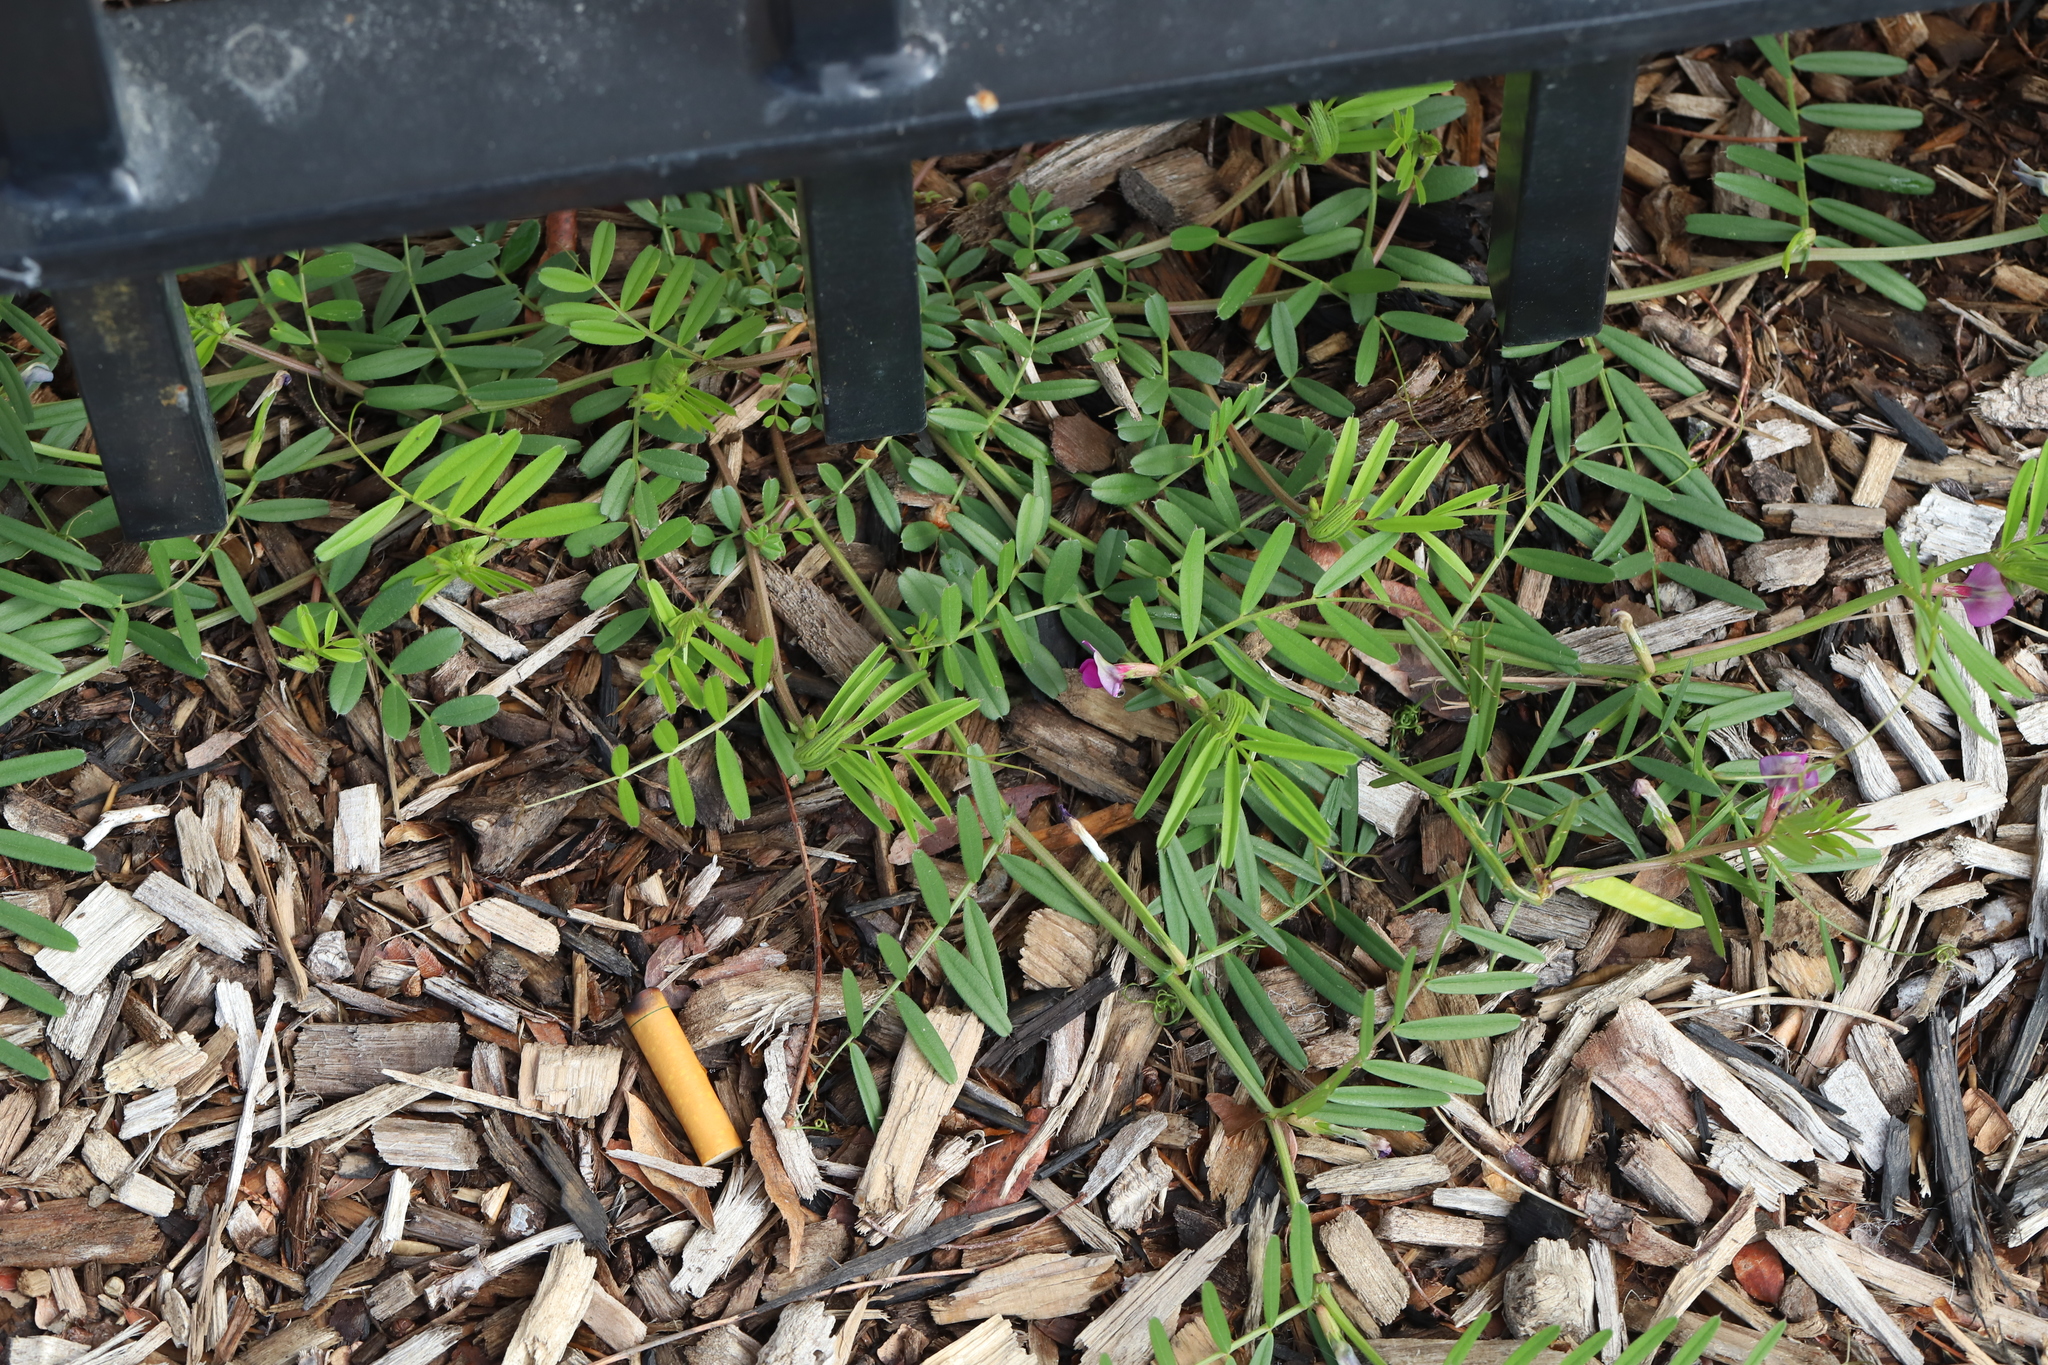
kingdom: Plantae
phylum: Tracheophyta
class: Magnoliopsida
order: Fabales
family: Fabaceae
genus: Vicia
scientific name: Vicia sativa
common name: Garden vetch
